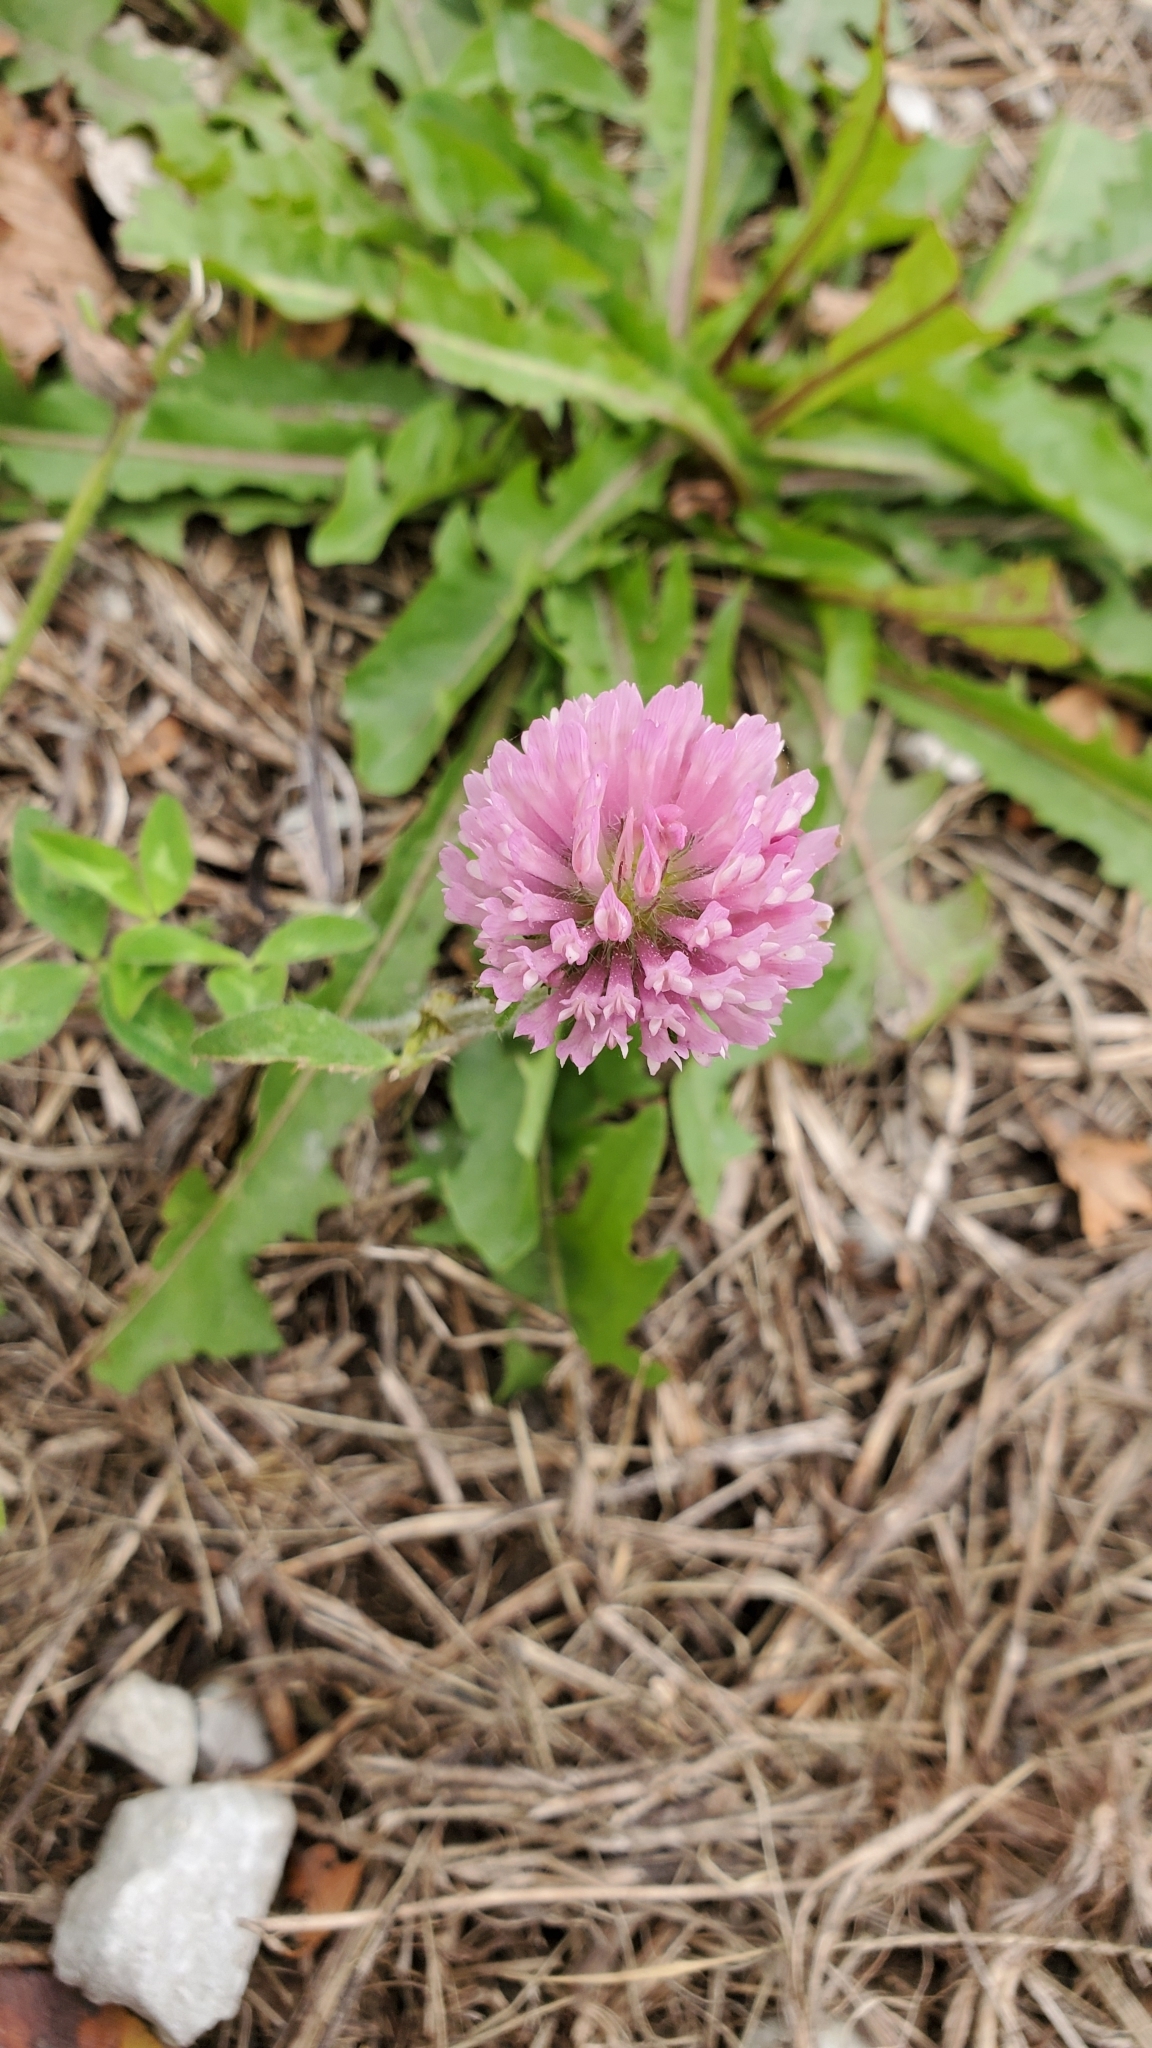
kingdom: Plantae
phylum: Tracheophyta
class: Magnoliopsida
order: Fabales
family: Fabaceae
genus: Trifolium
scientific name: Trifolium pratense
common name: Red clover
